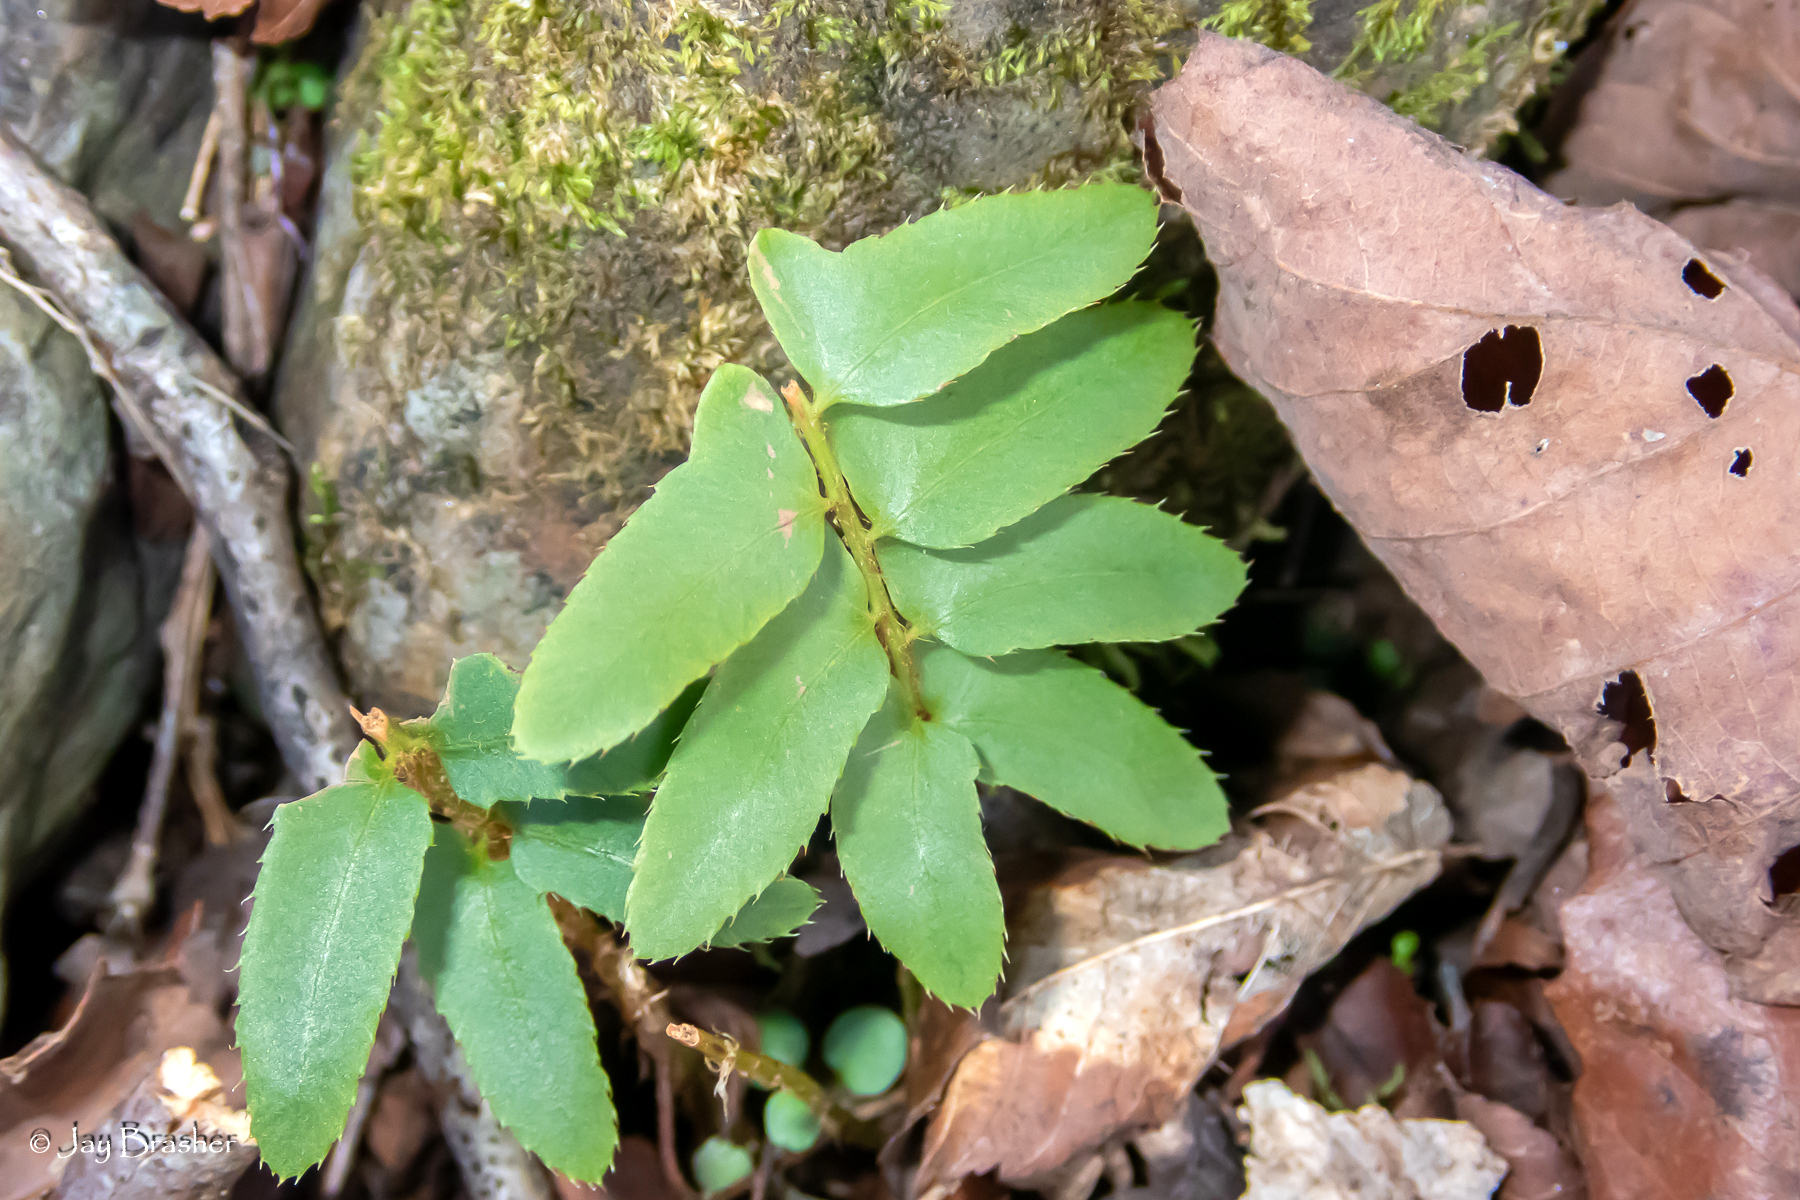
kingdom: Plantae
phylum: Tracheophyta
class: Polypodiopsida
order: Polypodiales
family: Dryopteridaceae
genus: Polystichum
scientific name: Polystichum acrostichoides
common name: Christmas fern
